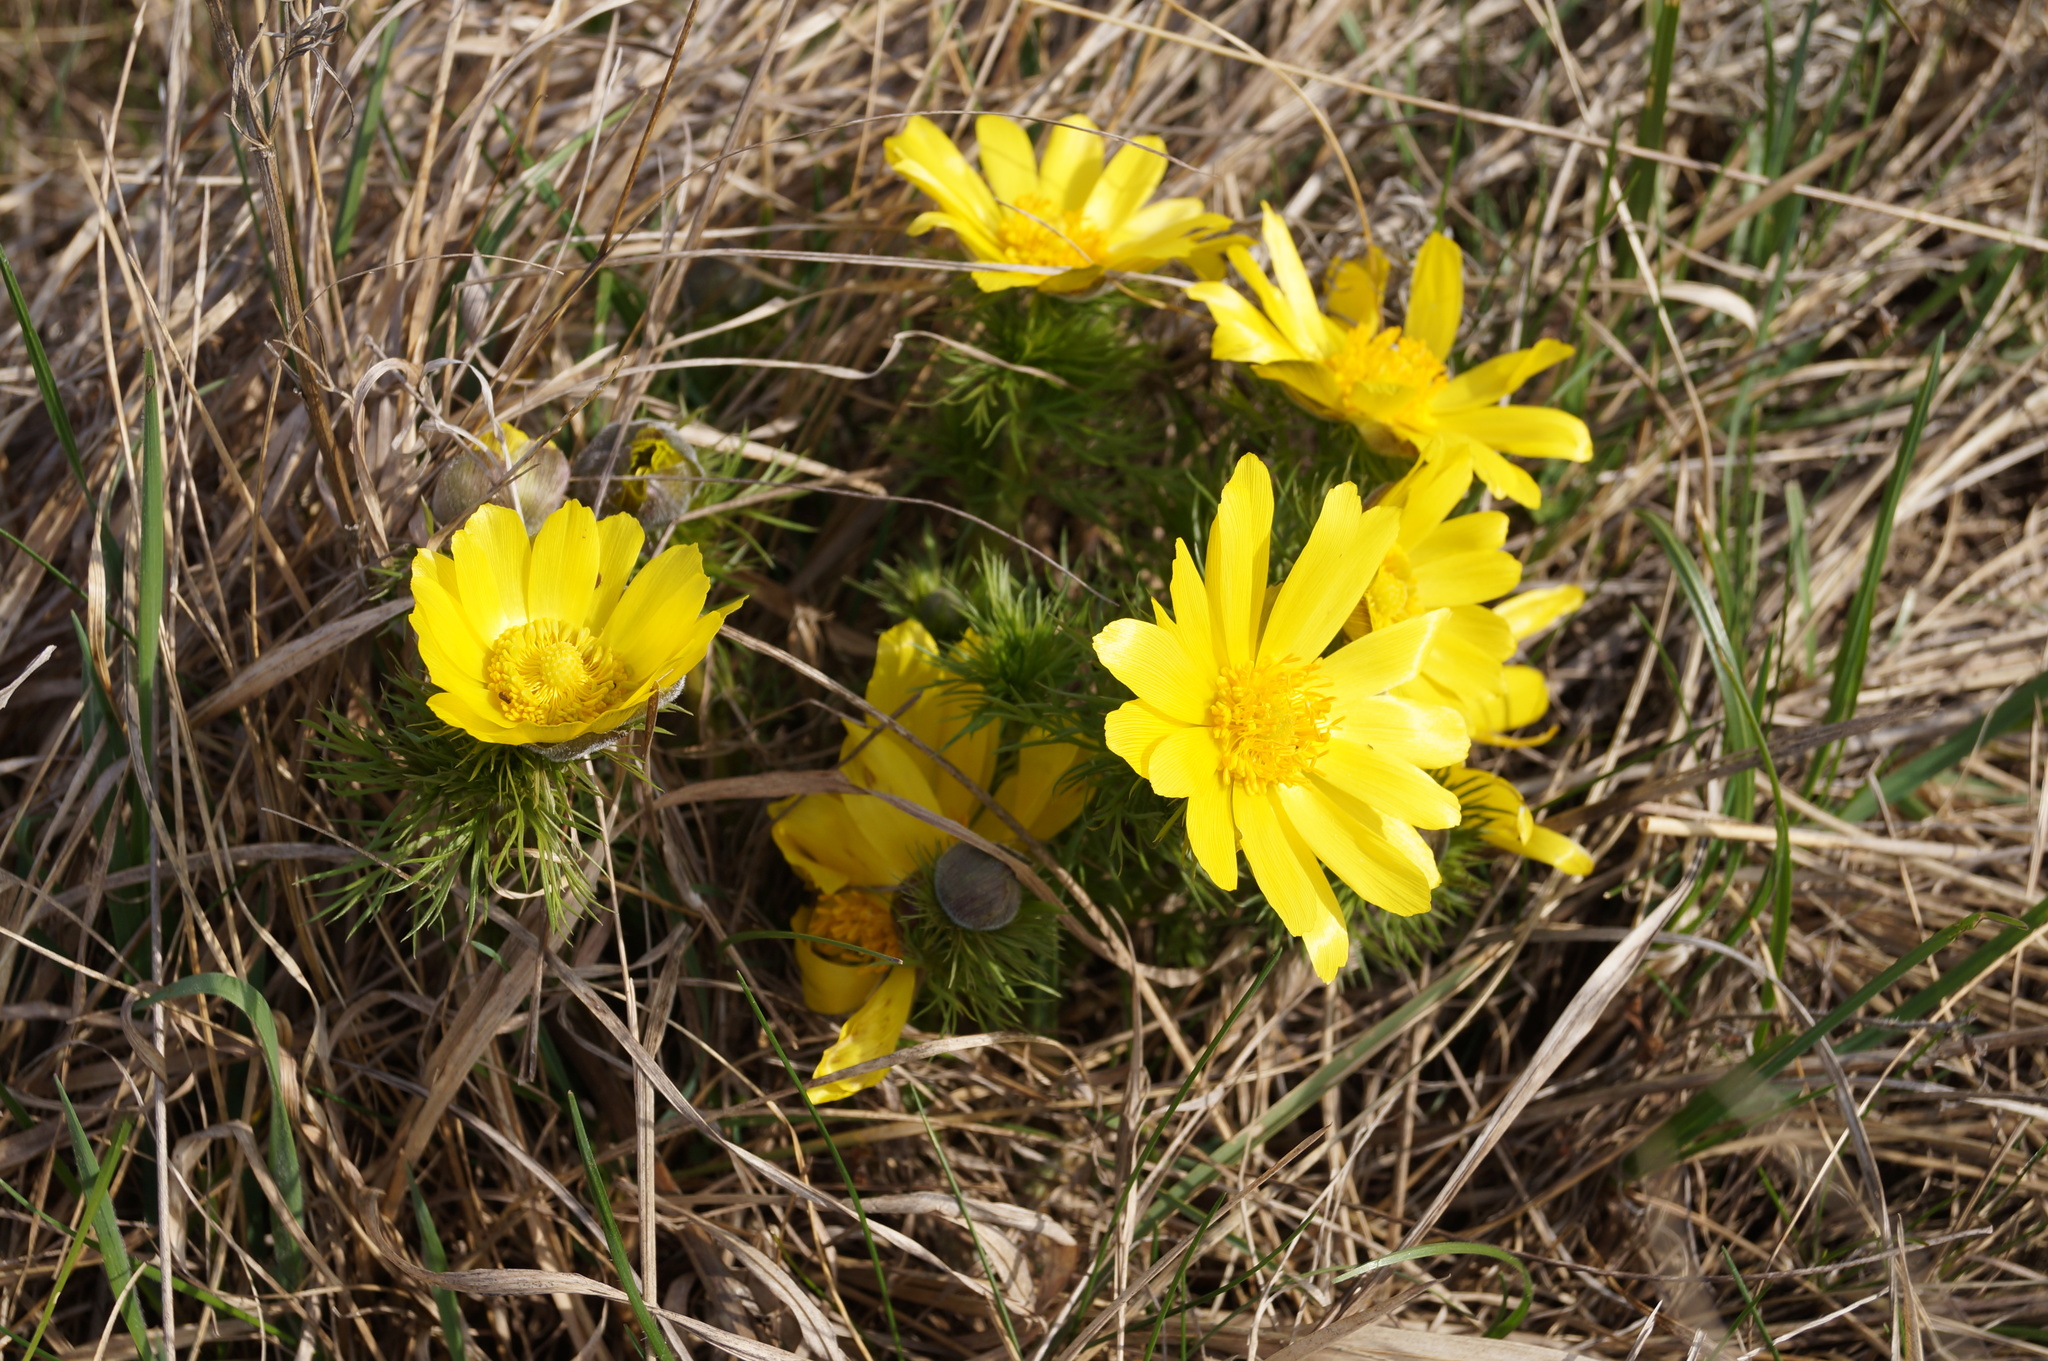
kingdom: Plantae
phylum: Tracheophyta
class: Magnoliopsida
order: Ranunculales
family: Ranunculaceae
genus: Adonis
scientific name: Adonis vernalis
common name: Yellow pheasants-eye
